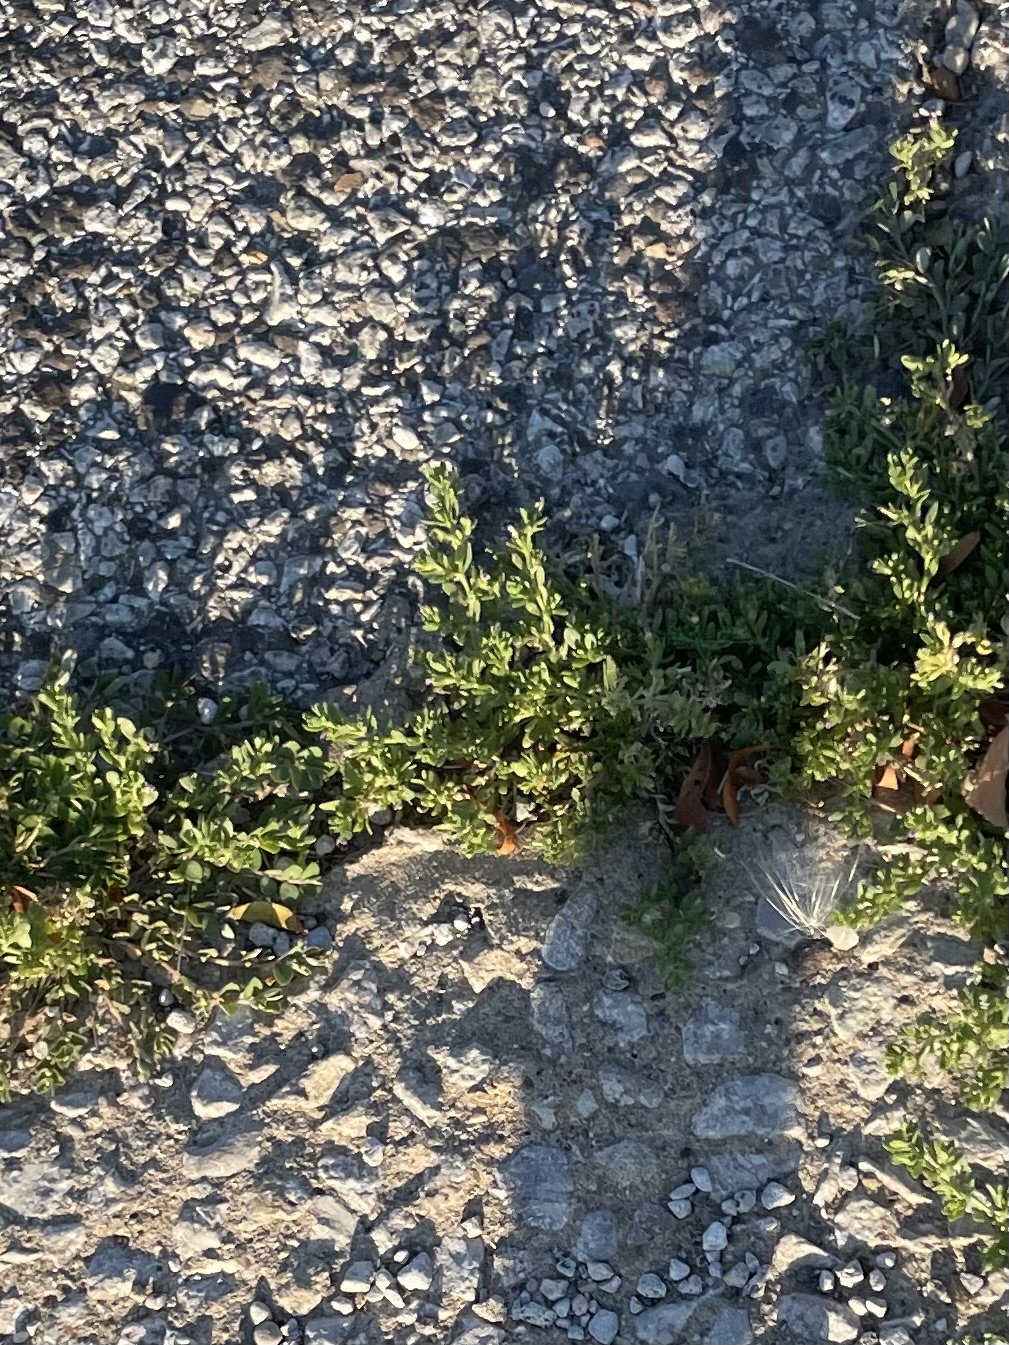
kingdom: Plantae
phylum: Tracheophyta
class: Magnoliopsida
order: Caryophyllales
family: Portulacaceae
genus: Portulaca
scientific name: Portulaca oleracea
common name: Common purslane
